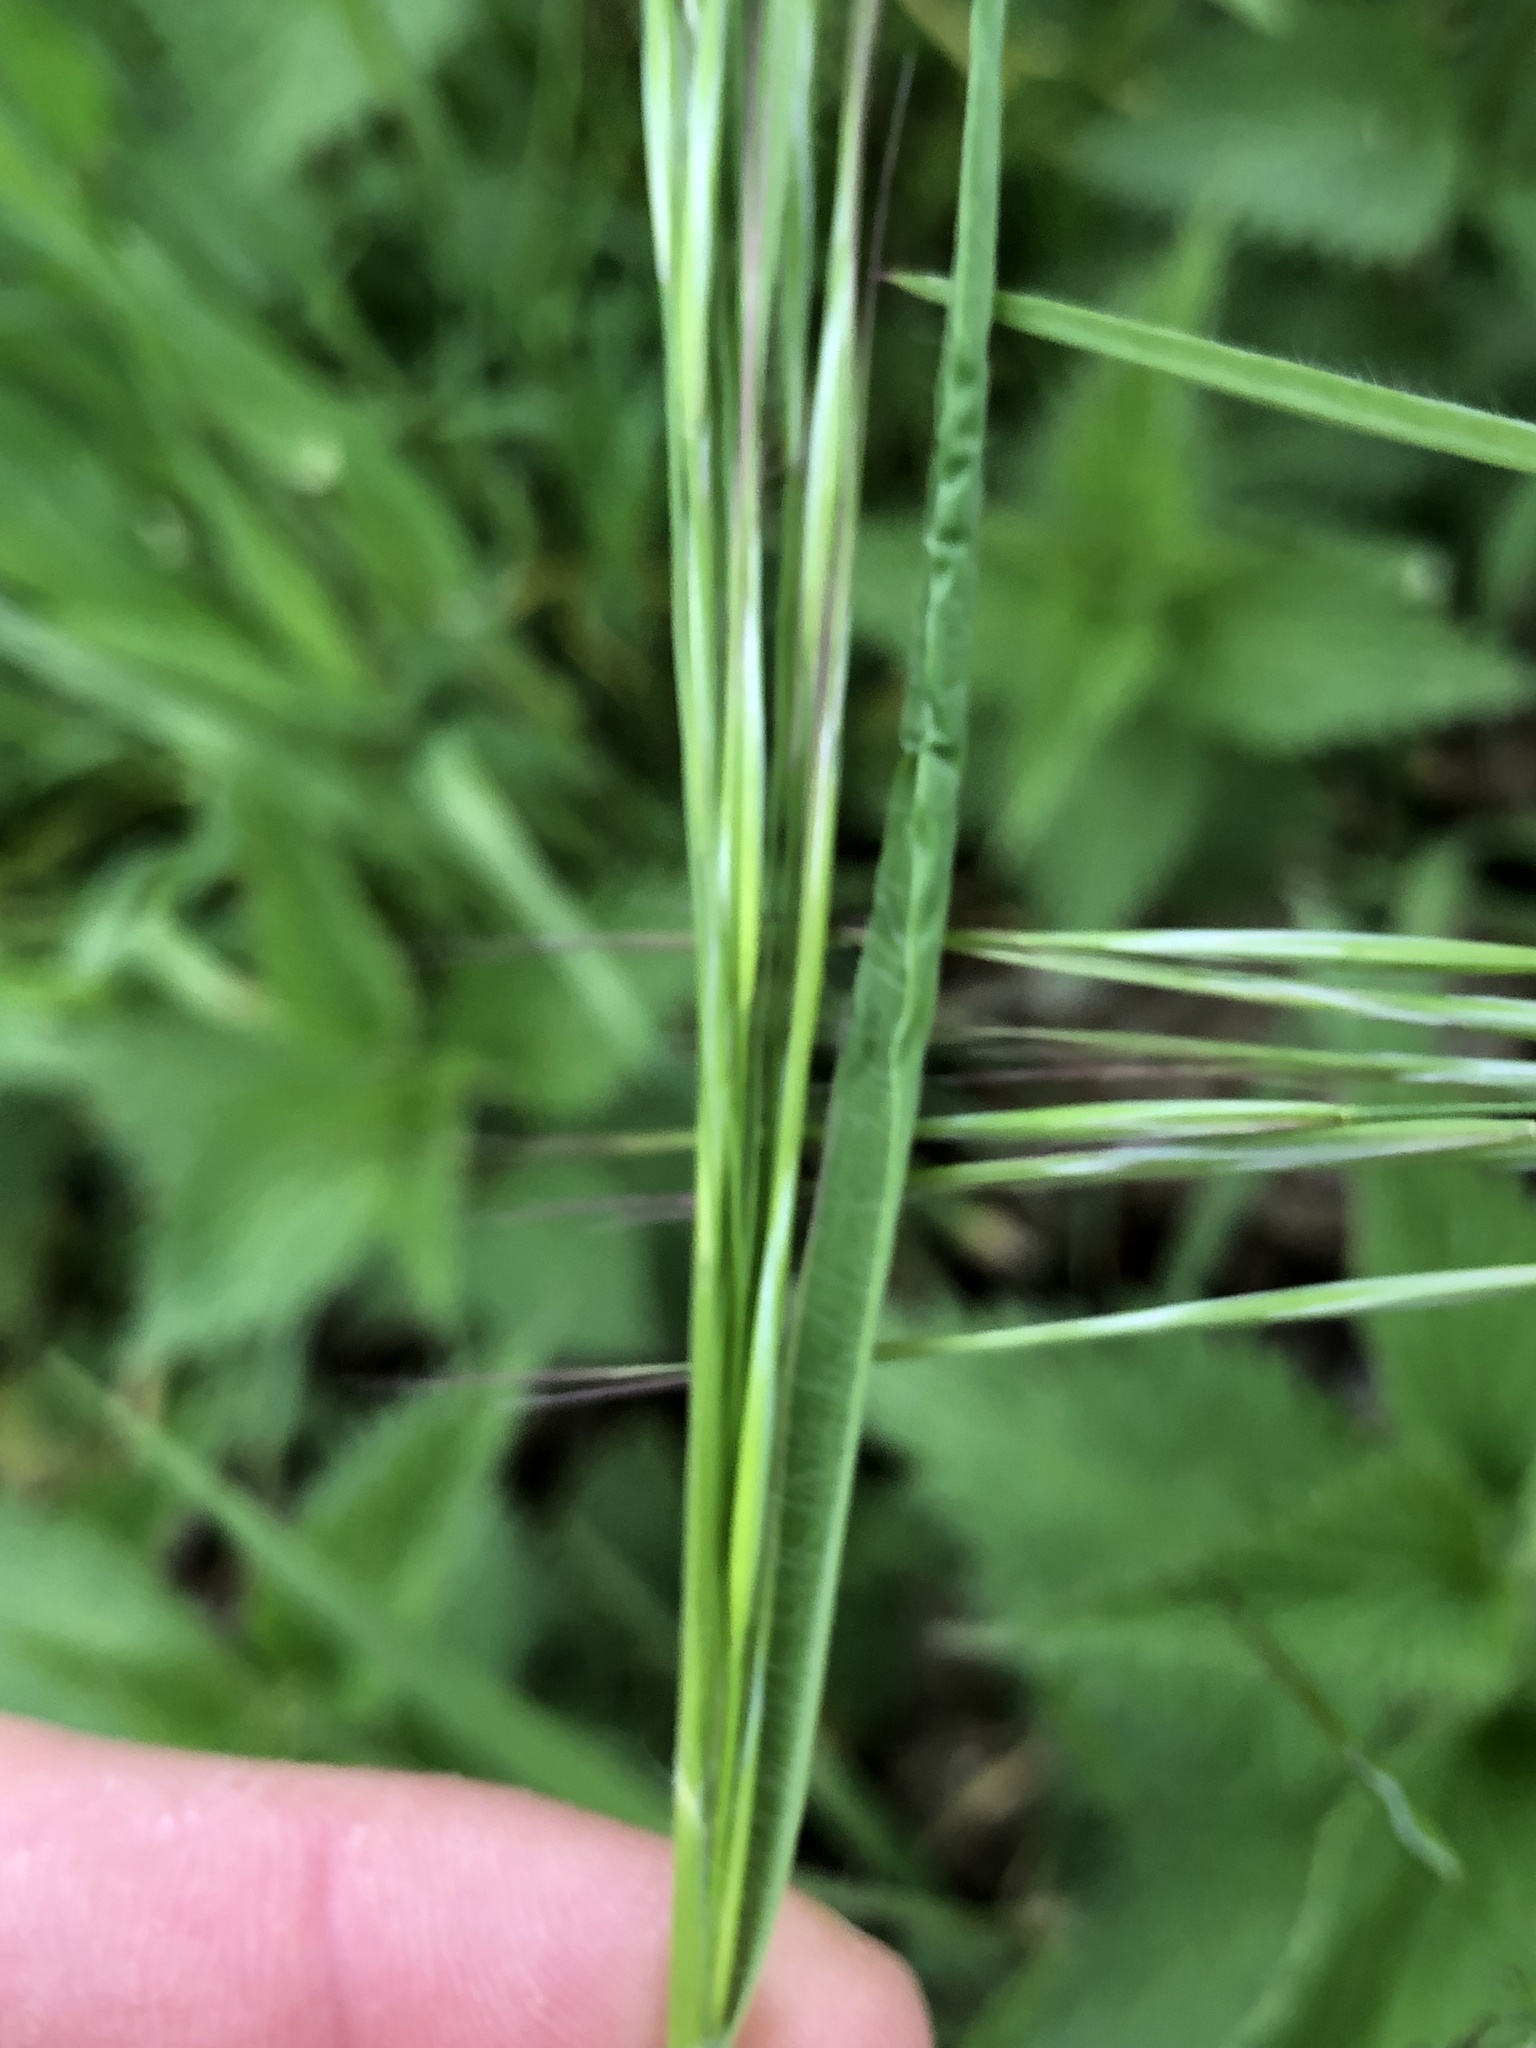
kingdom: Plantae
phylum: Tracheophyta
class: Liliopsida
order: Poales
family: Poaceae
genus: Bromus
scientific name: Bromus sterilis
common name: Poverty brome
